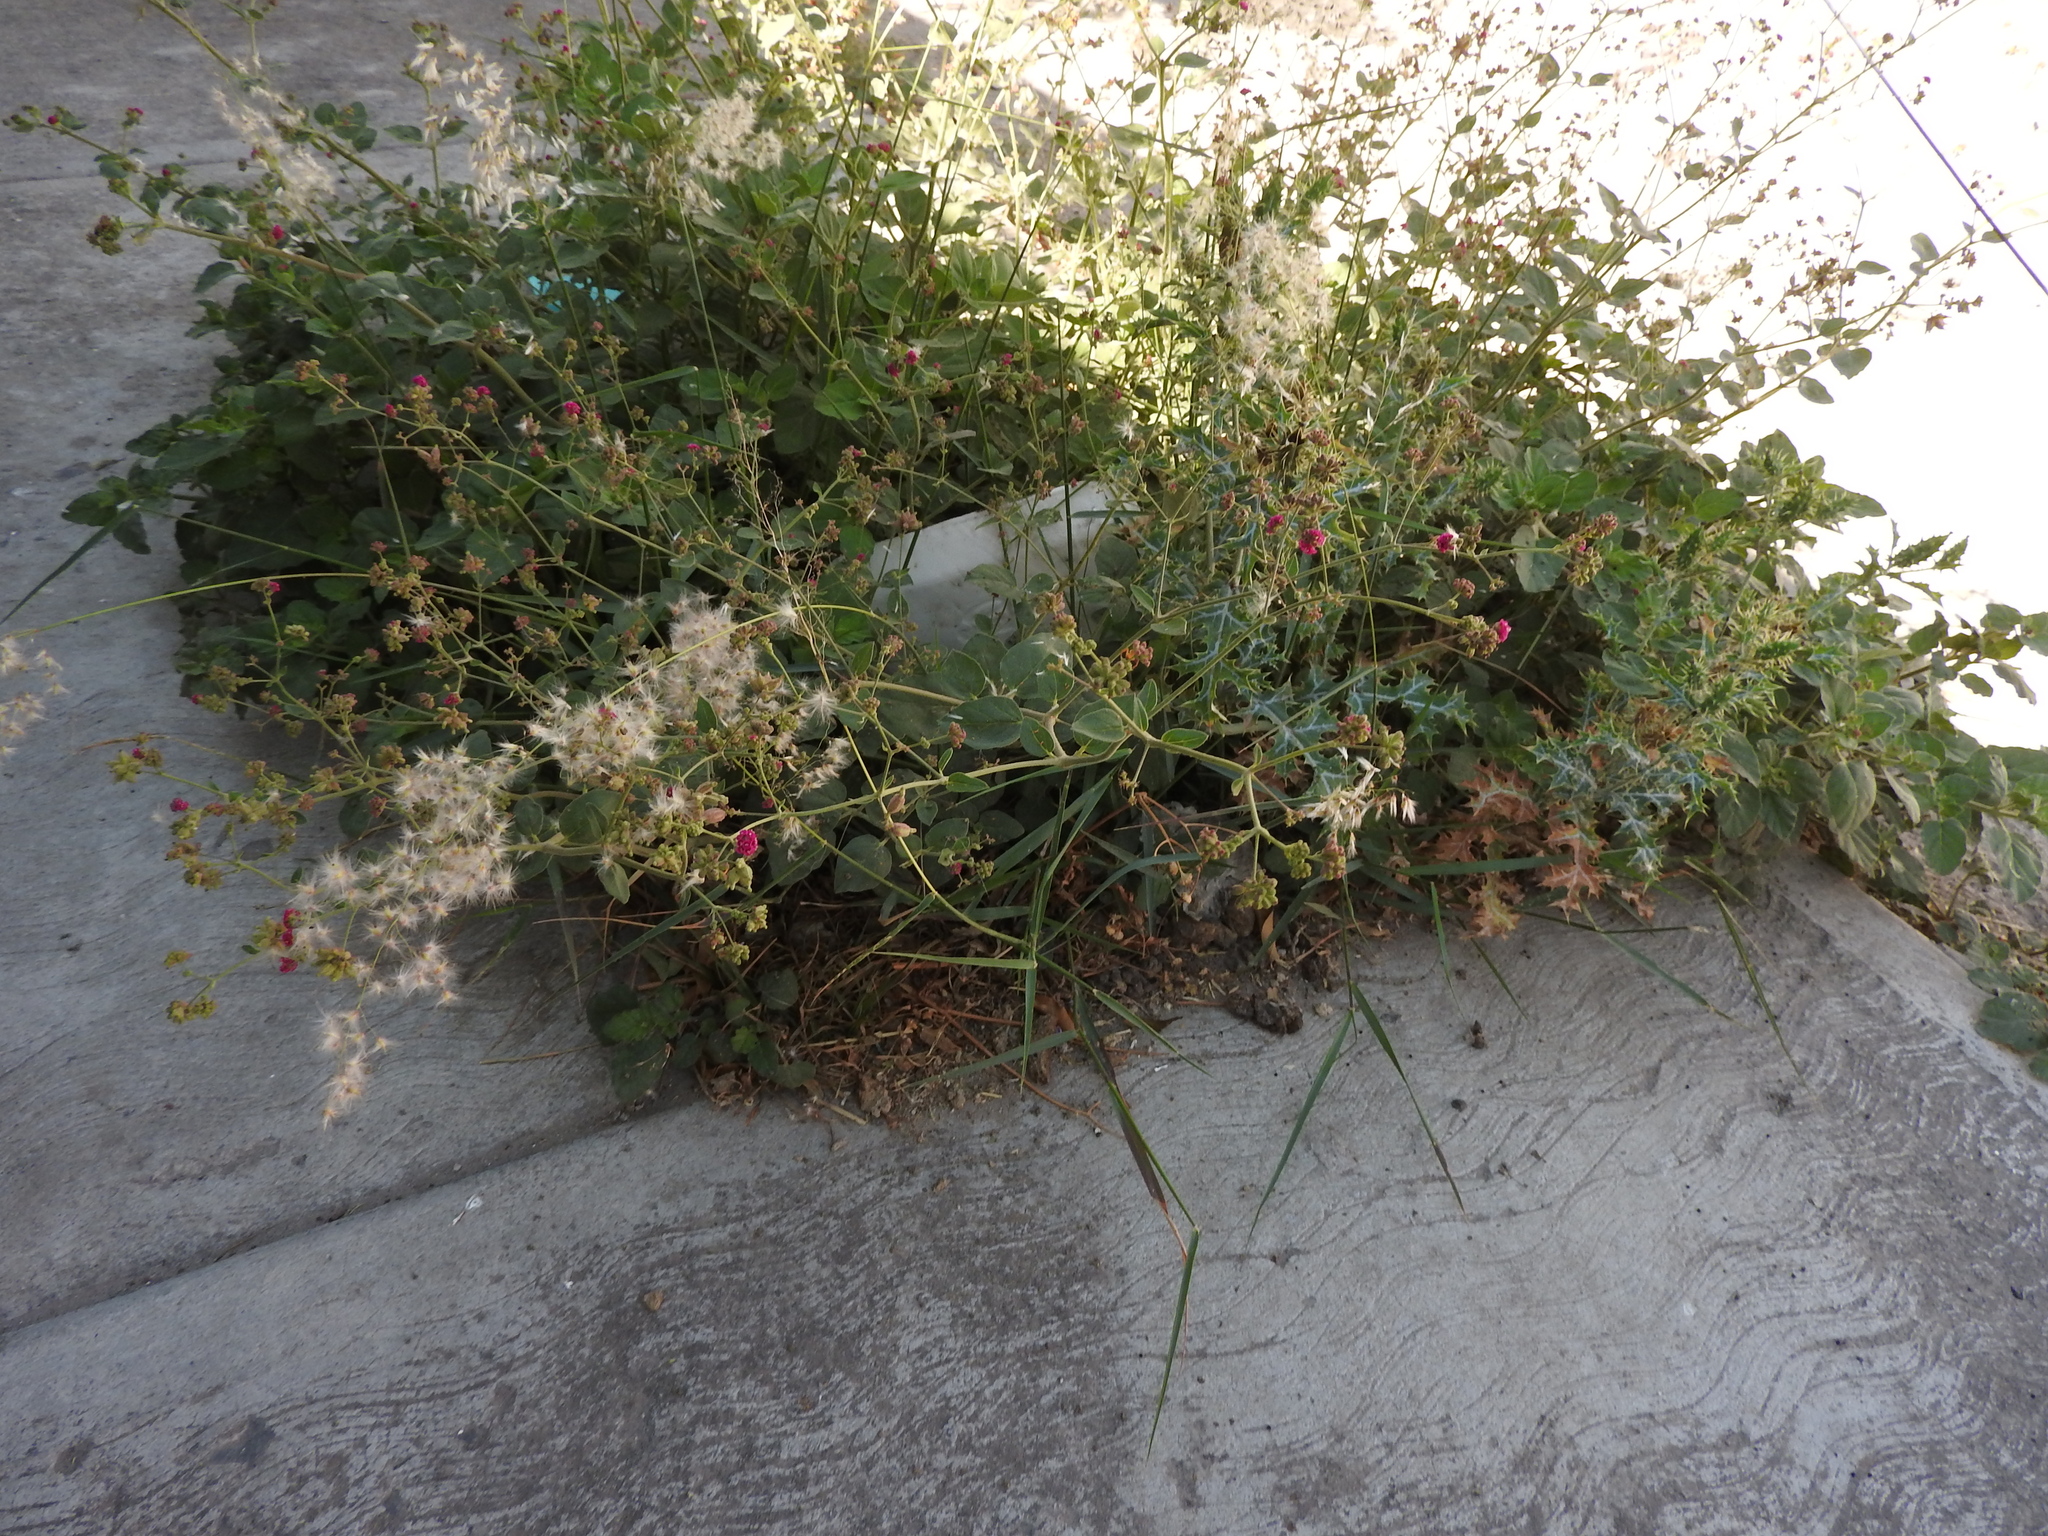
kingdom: Plantae
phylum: Tracheophyta
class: Magnoliopsida
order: Caryophyllales
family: Nyctaginaceae
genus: Boerhavia
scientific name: Boerhavia coccinea
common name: Scarlet spiderling
